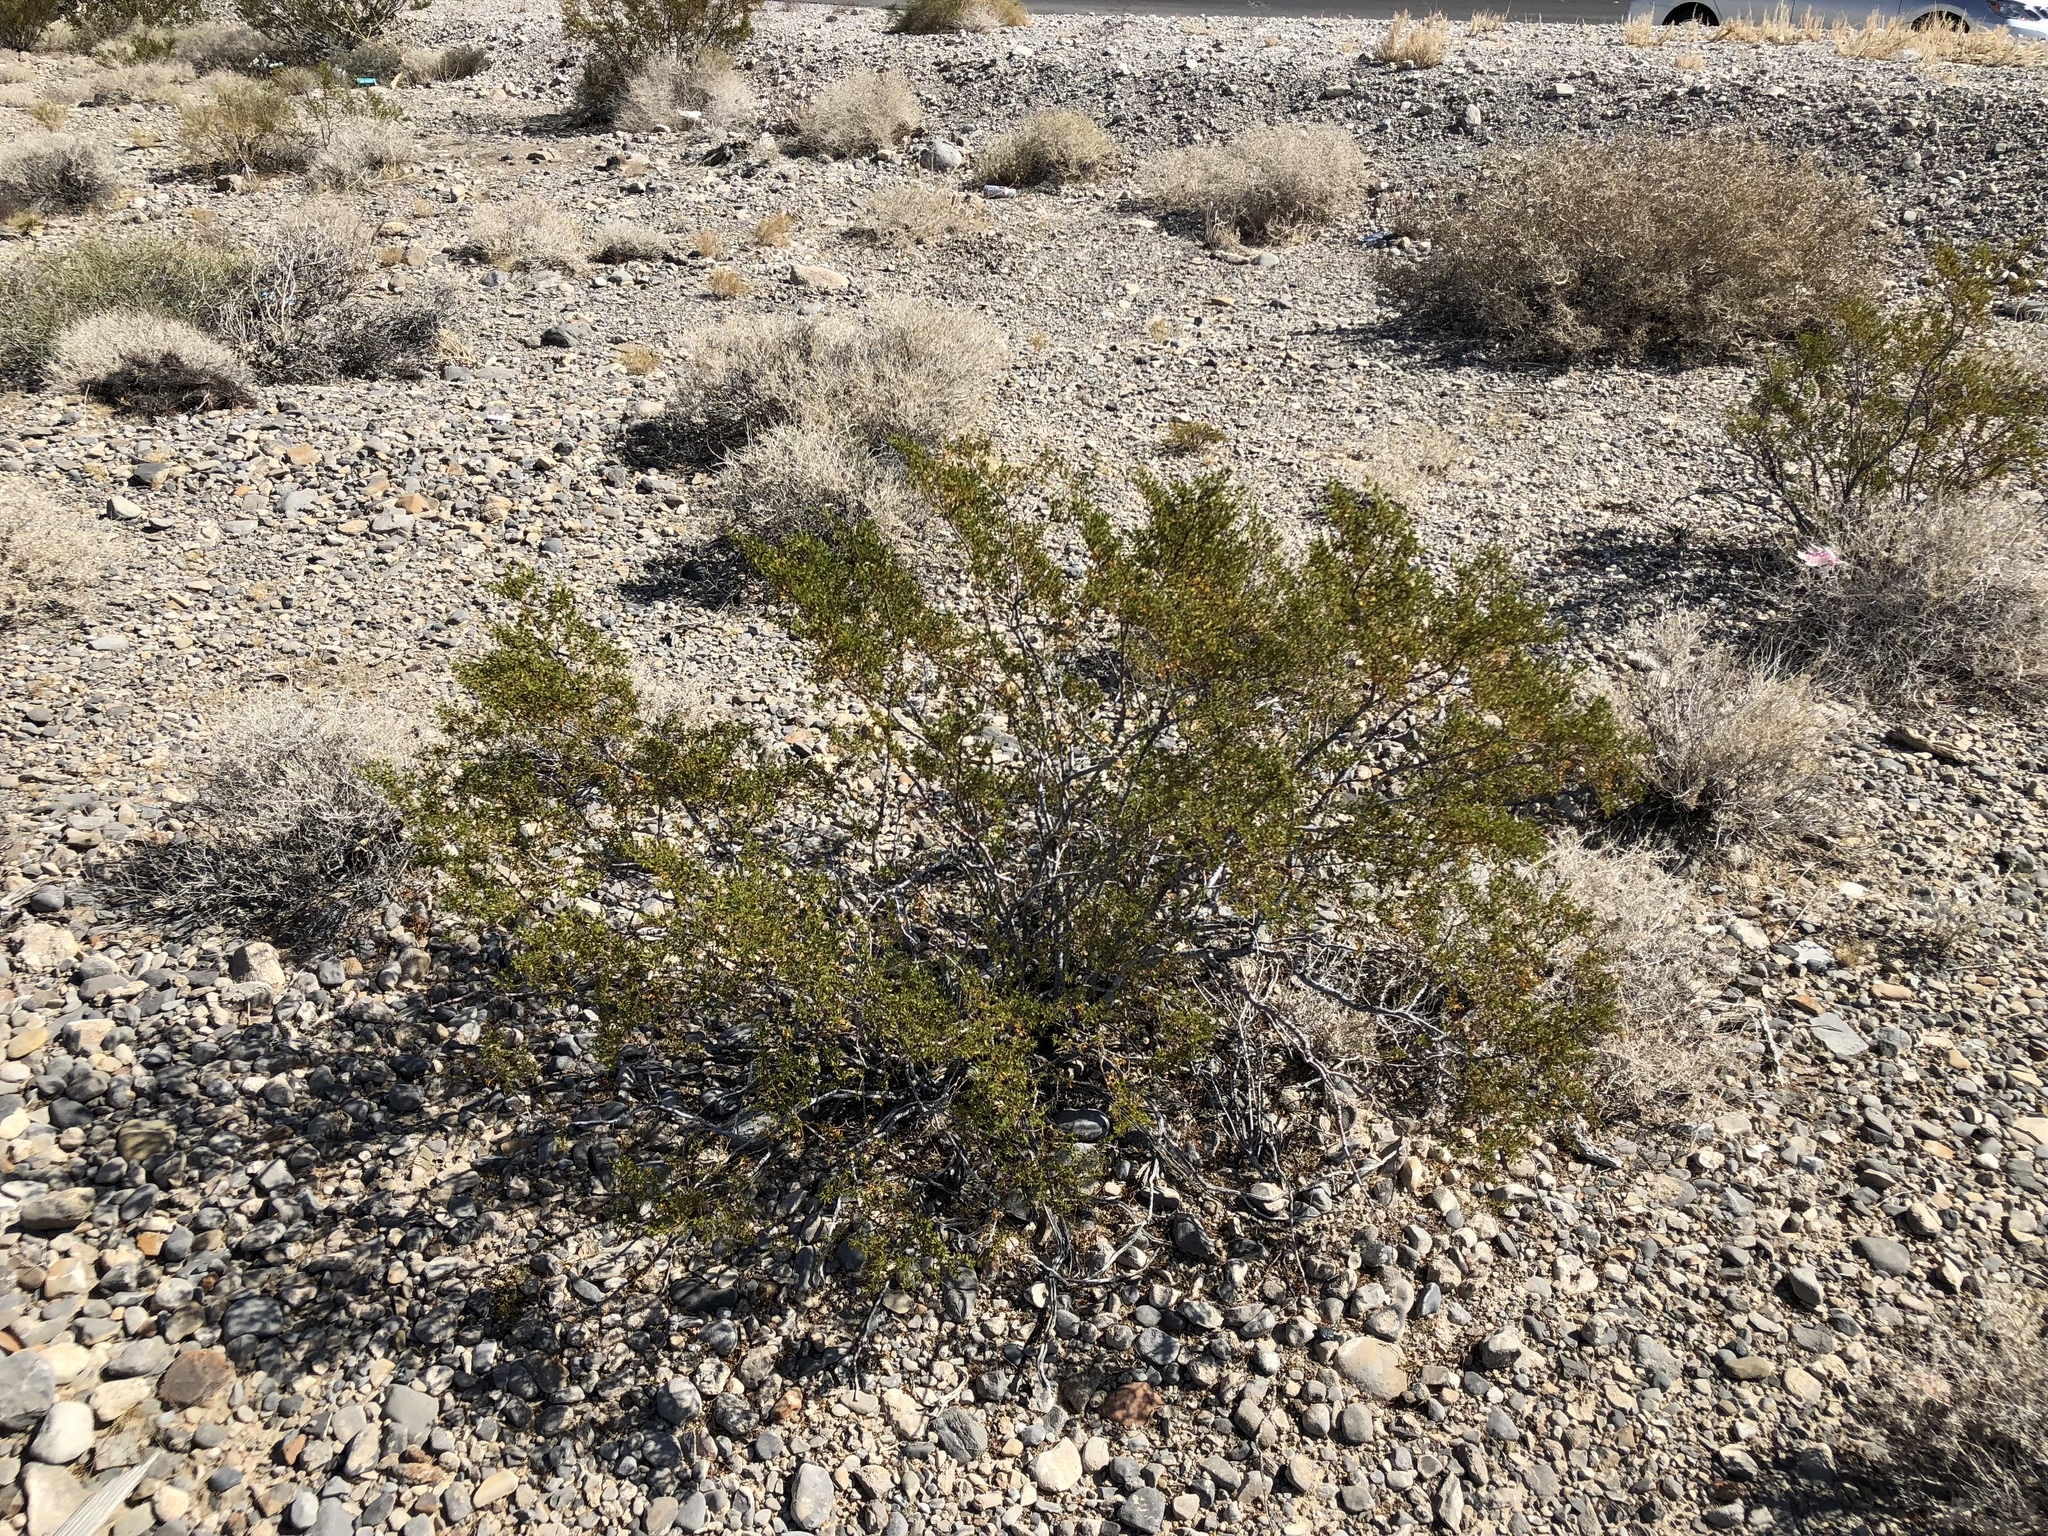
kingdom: Plantae
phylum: Tracheophyta
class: Magnoliopsida
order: Zygophyllales
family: Zygophyllaceae
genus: Larrea
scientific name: Larrea tridentata
